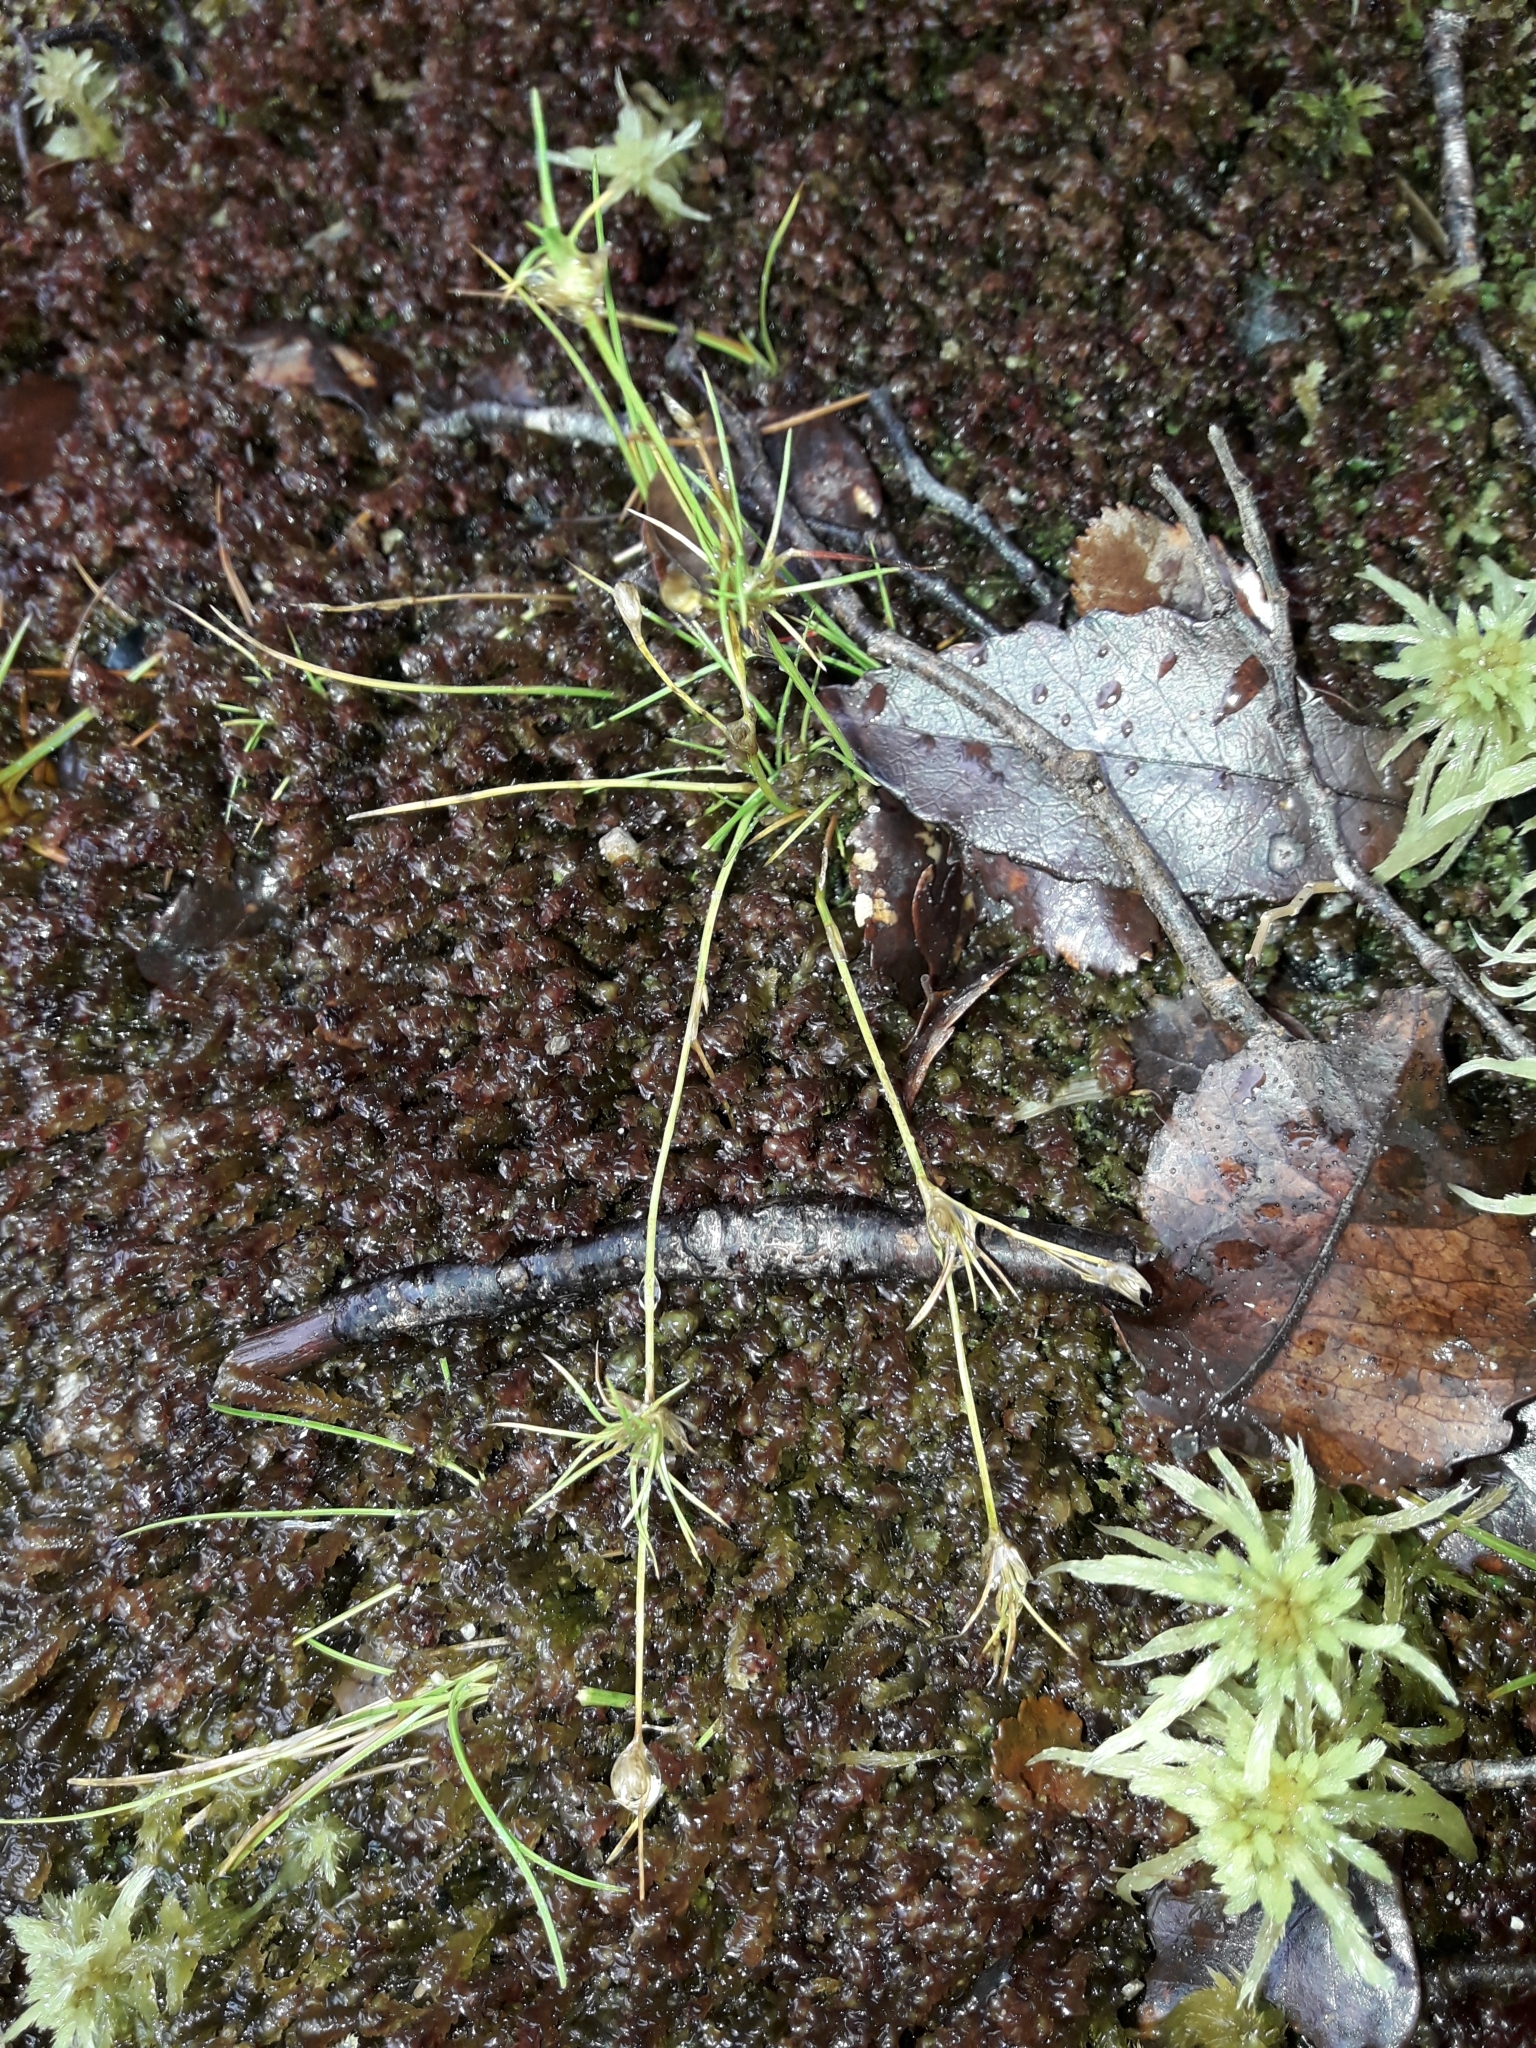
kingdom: Plantae
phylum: Tracheophyta
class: Liliopsida
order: Poales
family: Cyperaceae
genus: Schoenus
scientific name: Schoenus maschalinus
